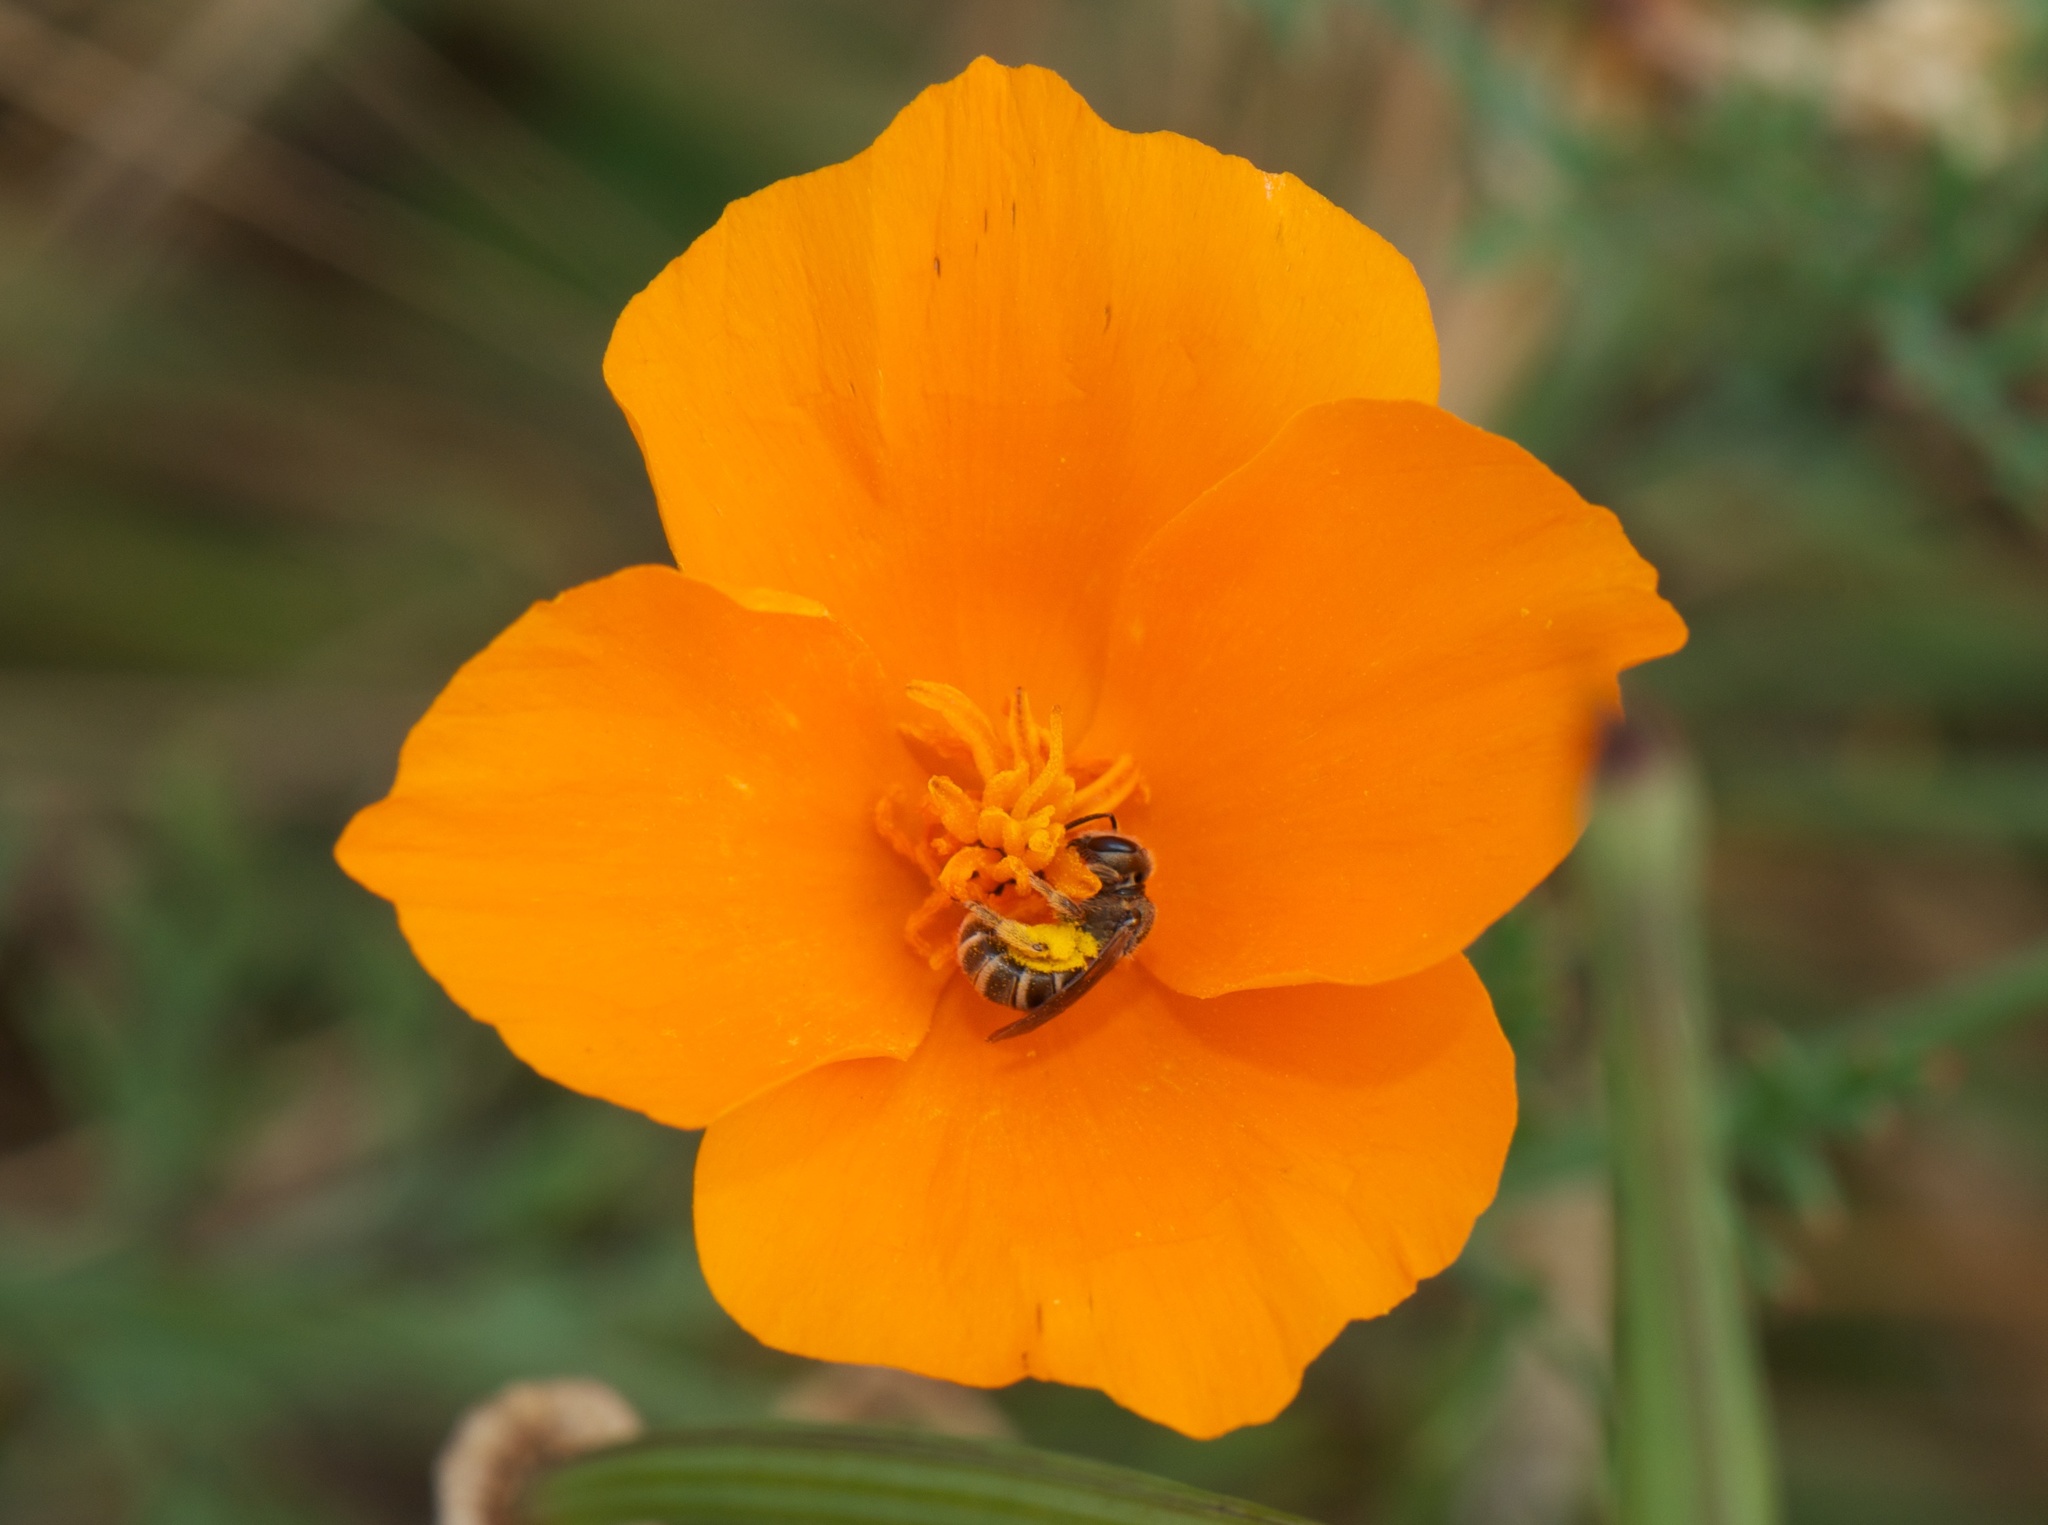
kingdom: Plantae
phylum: Tracheophyta
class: Magnoliopsida
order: Ranunculales
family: Papaveraceae
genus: Eschscholzia
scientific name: Eschscholzia californica
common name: California poppy
